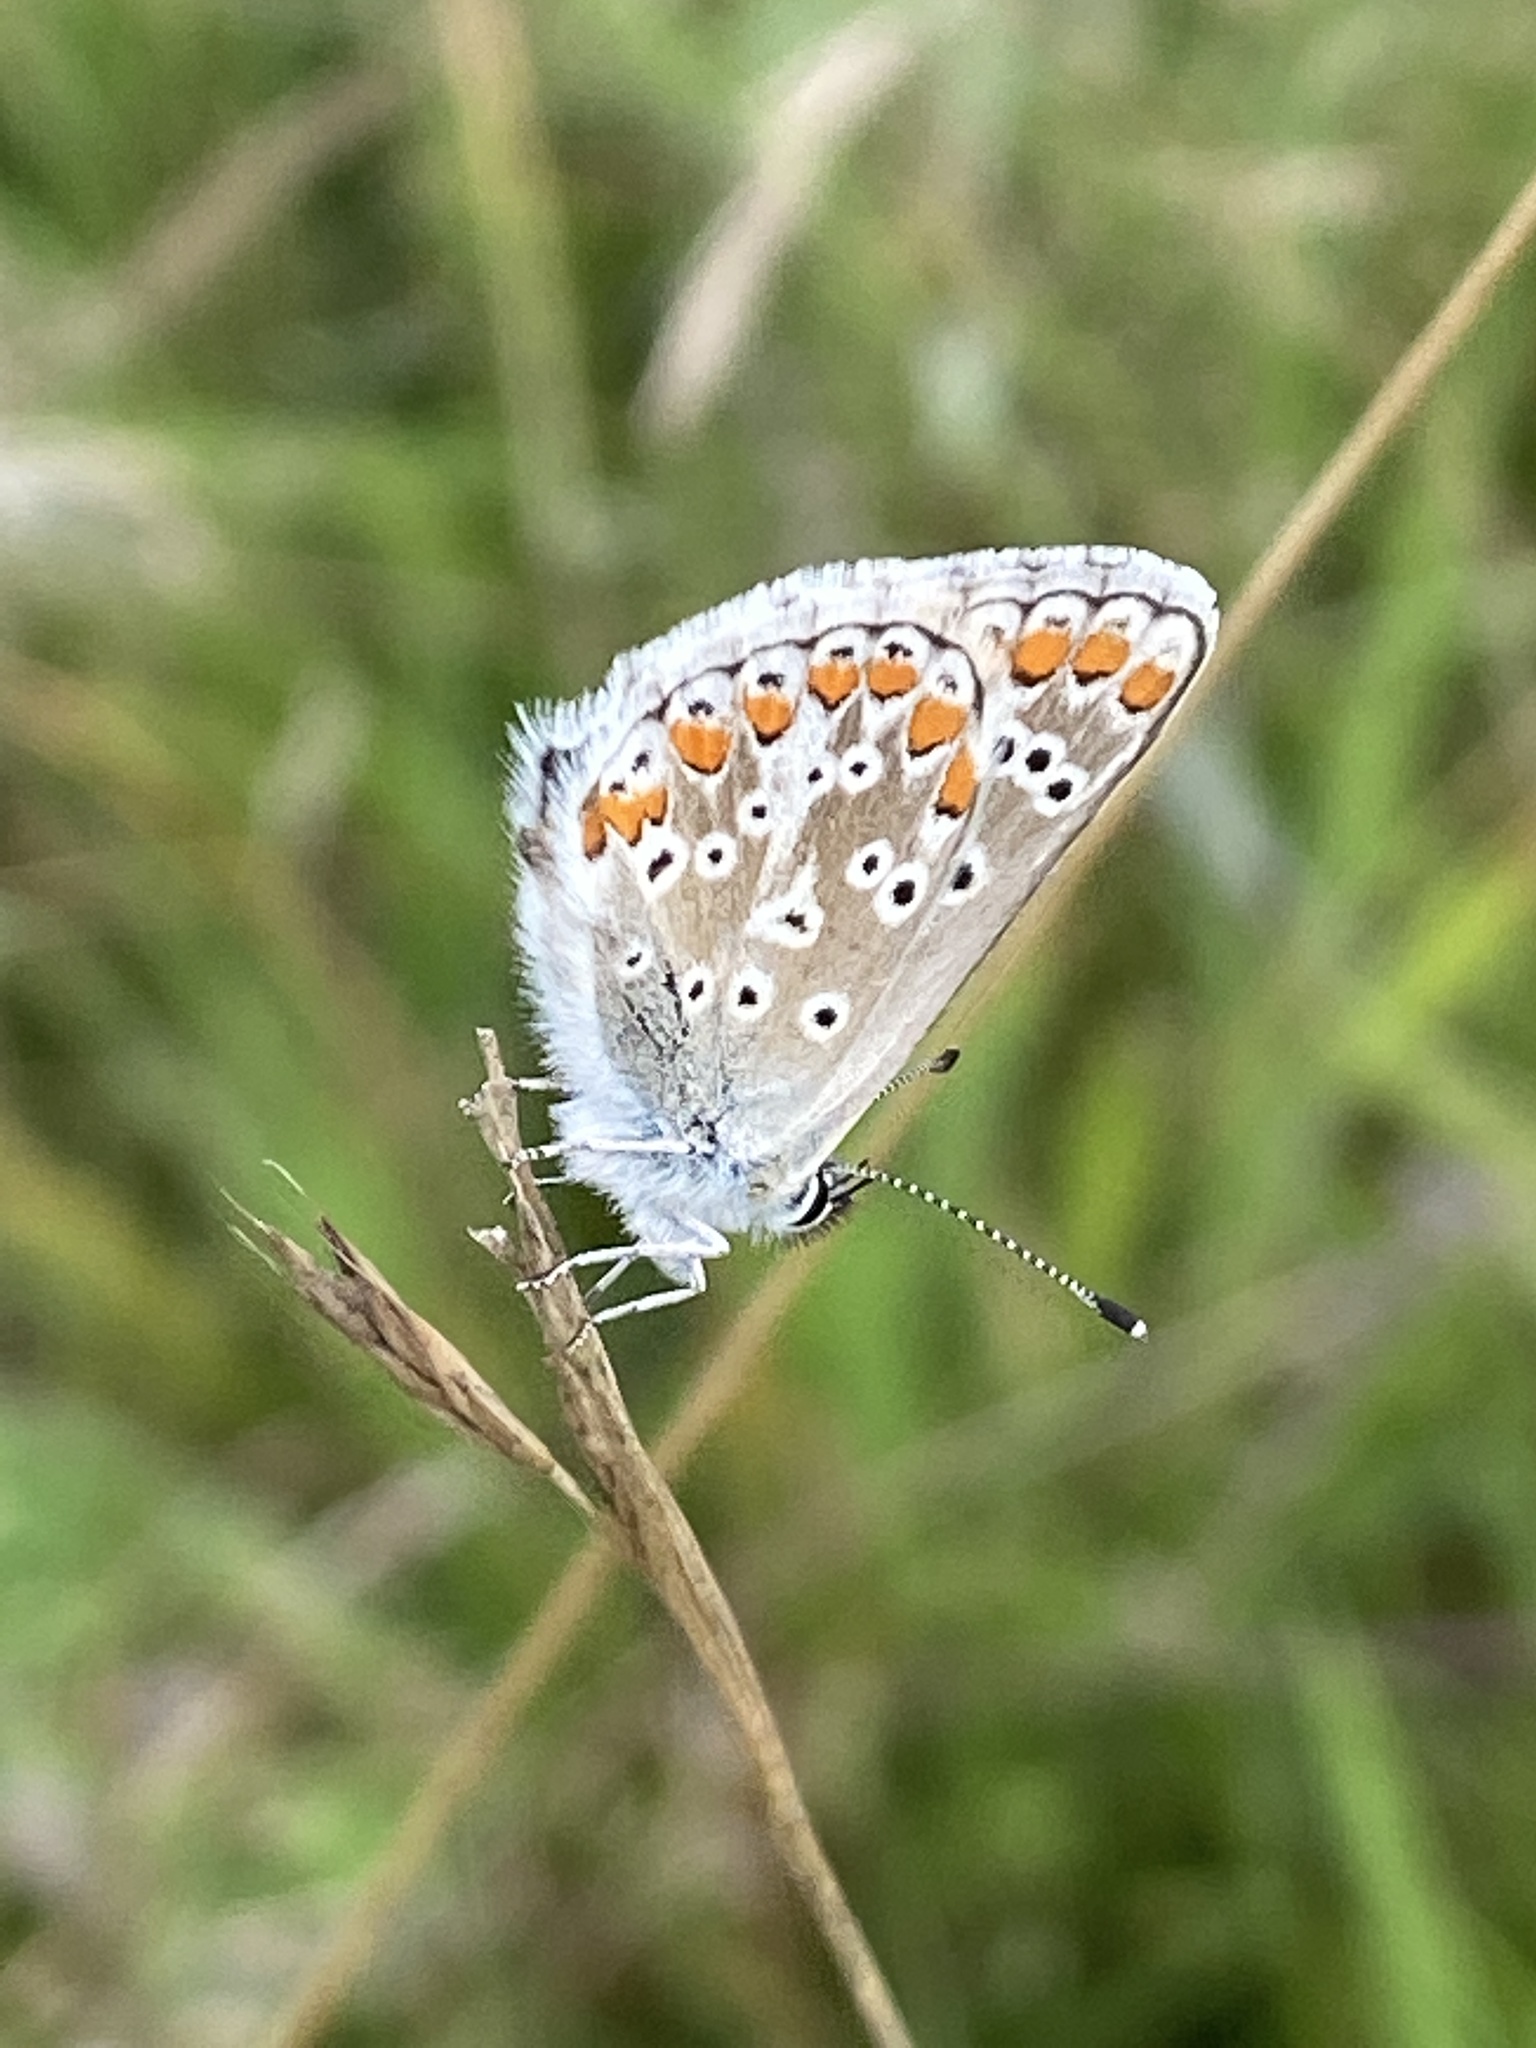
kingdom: Animalia
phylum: Arthropoda
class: Insecta
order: Lepidoptera
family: Lycaenidae
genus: Aricia
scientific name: Aricia agestis
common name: Brown argus
